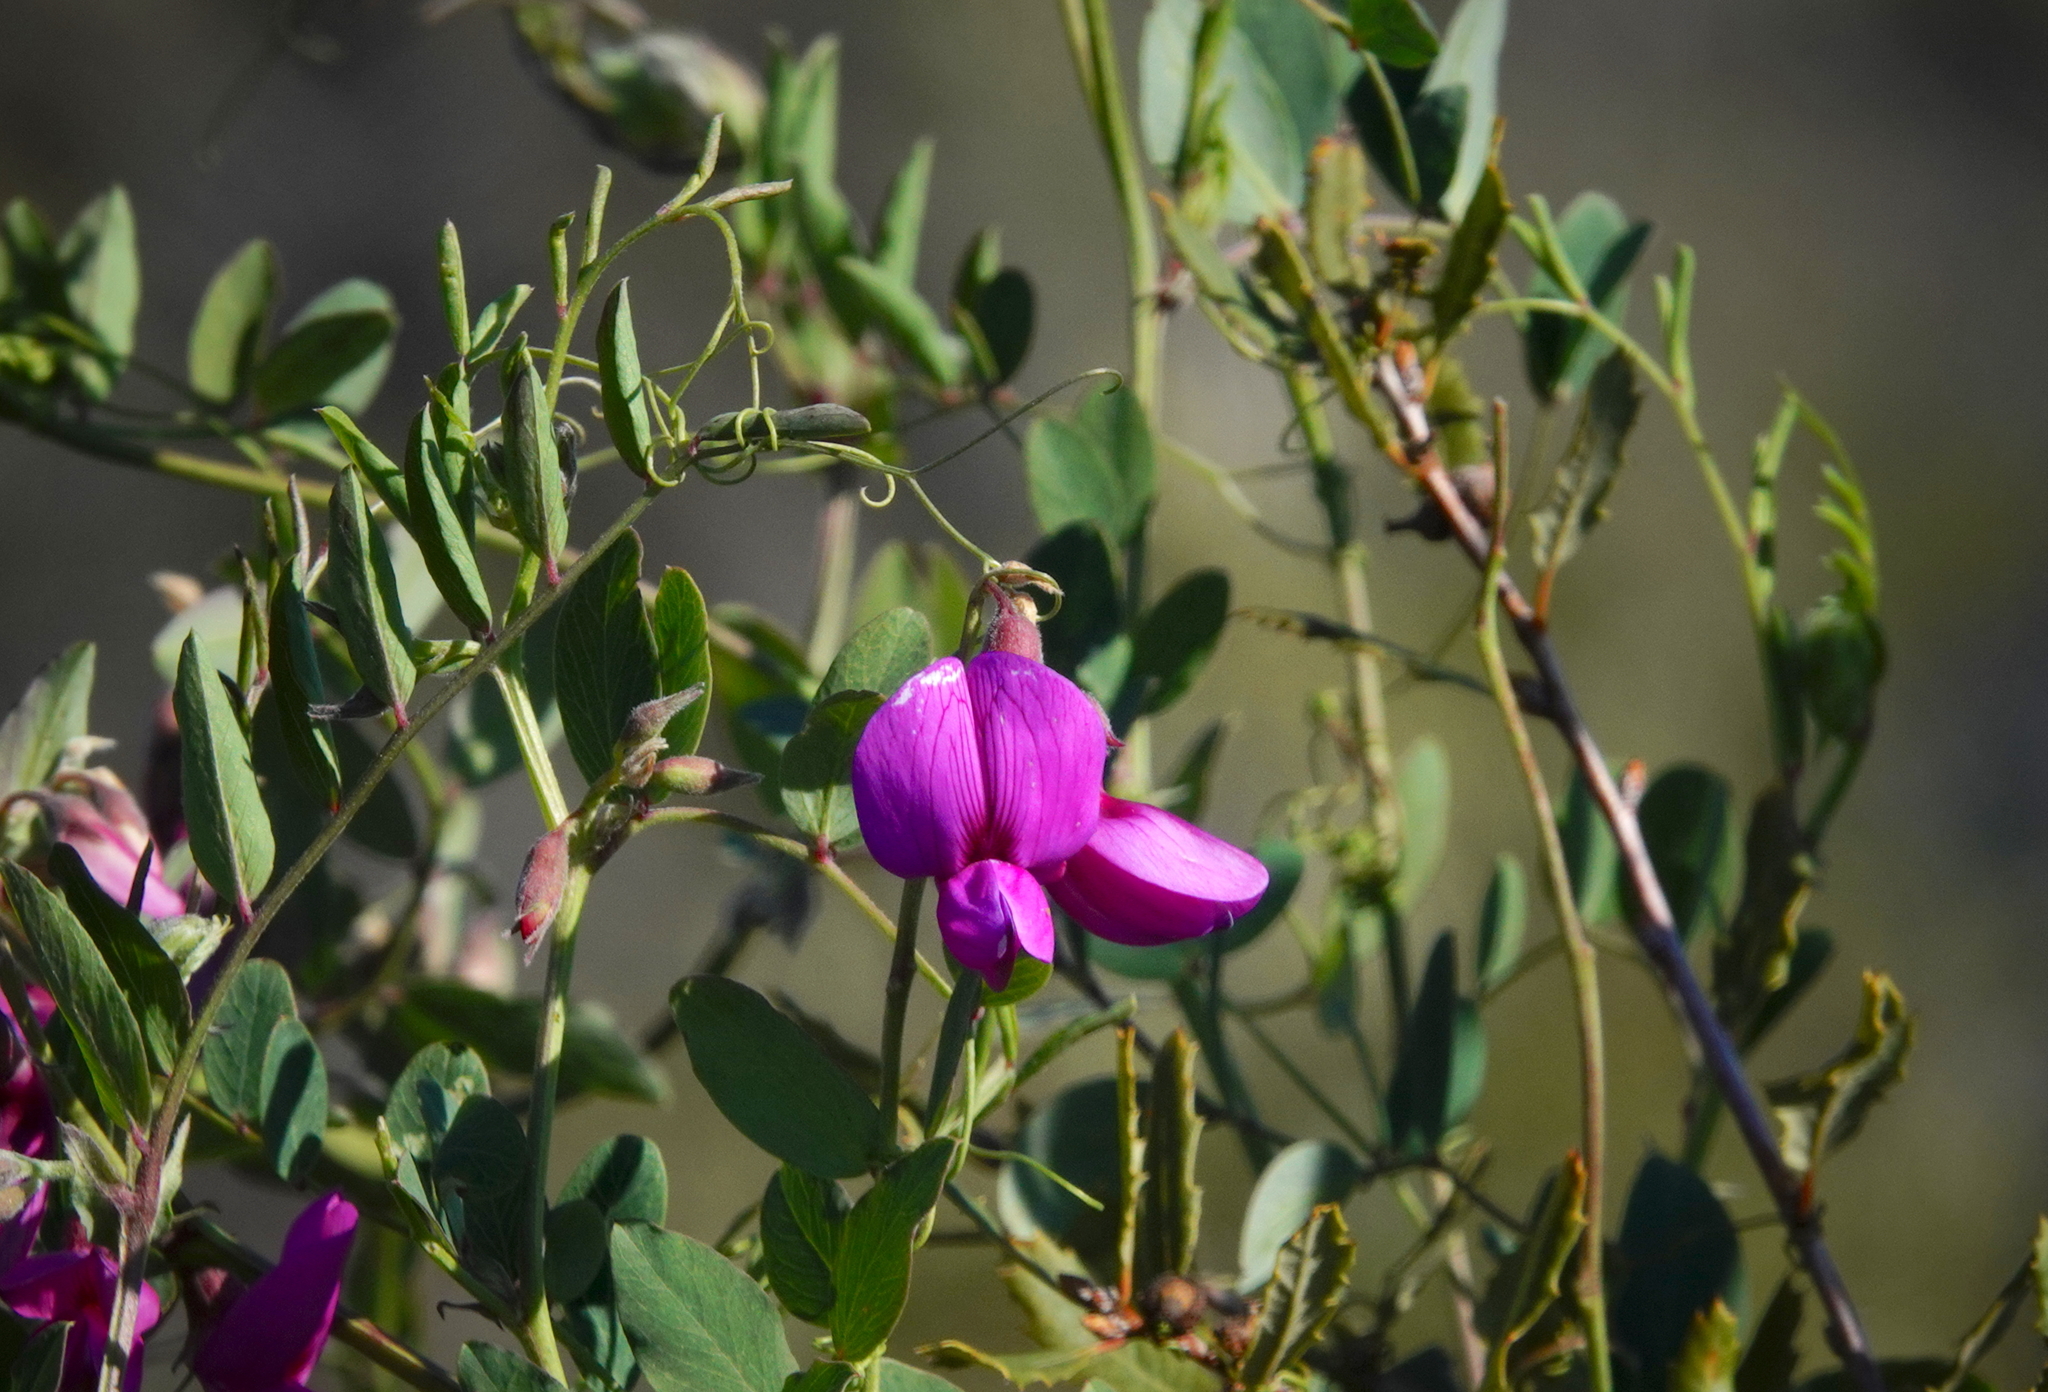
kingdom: Plantae
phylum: Tracheophyta
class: Magnoliopsida
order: Fabales
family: Fabaceae
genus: Lathyrus
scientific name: Lathyrus vestitus
